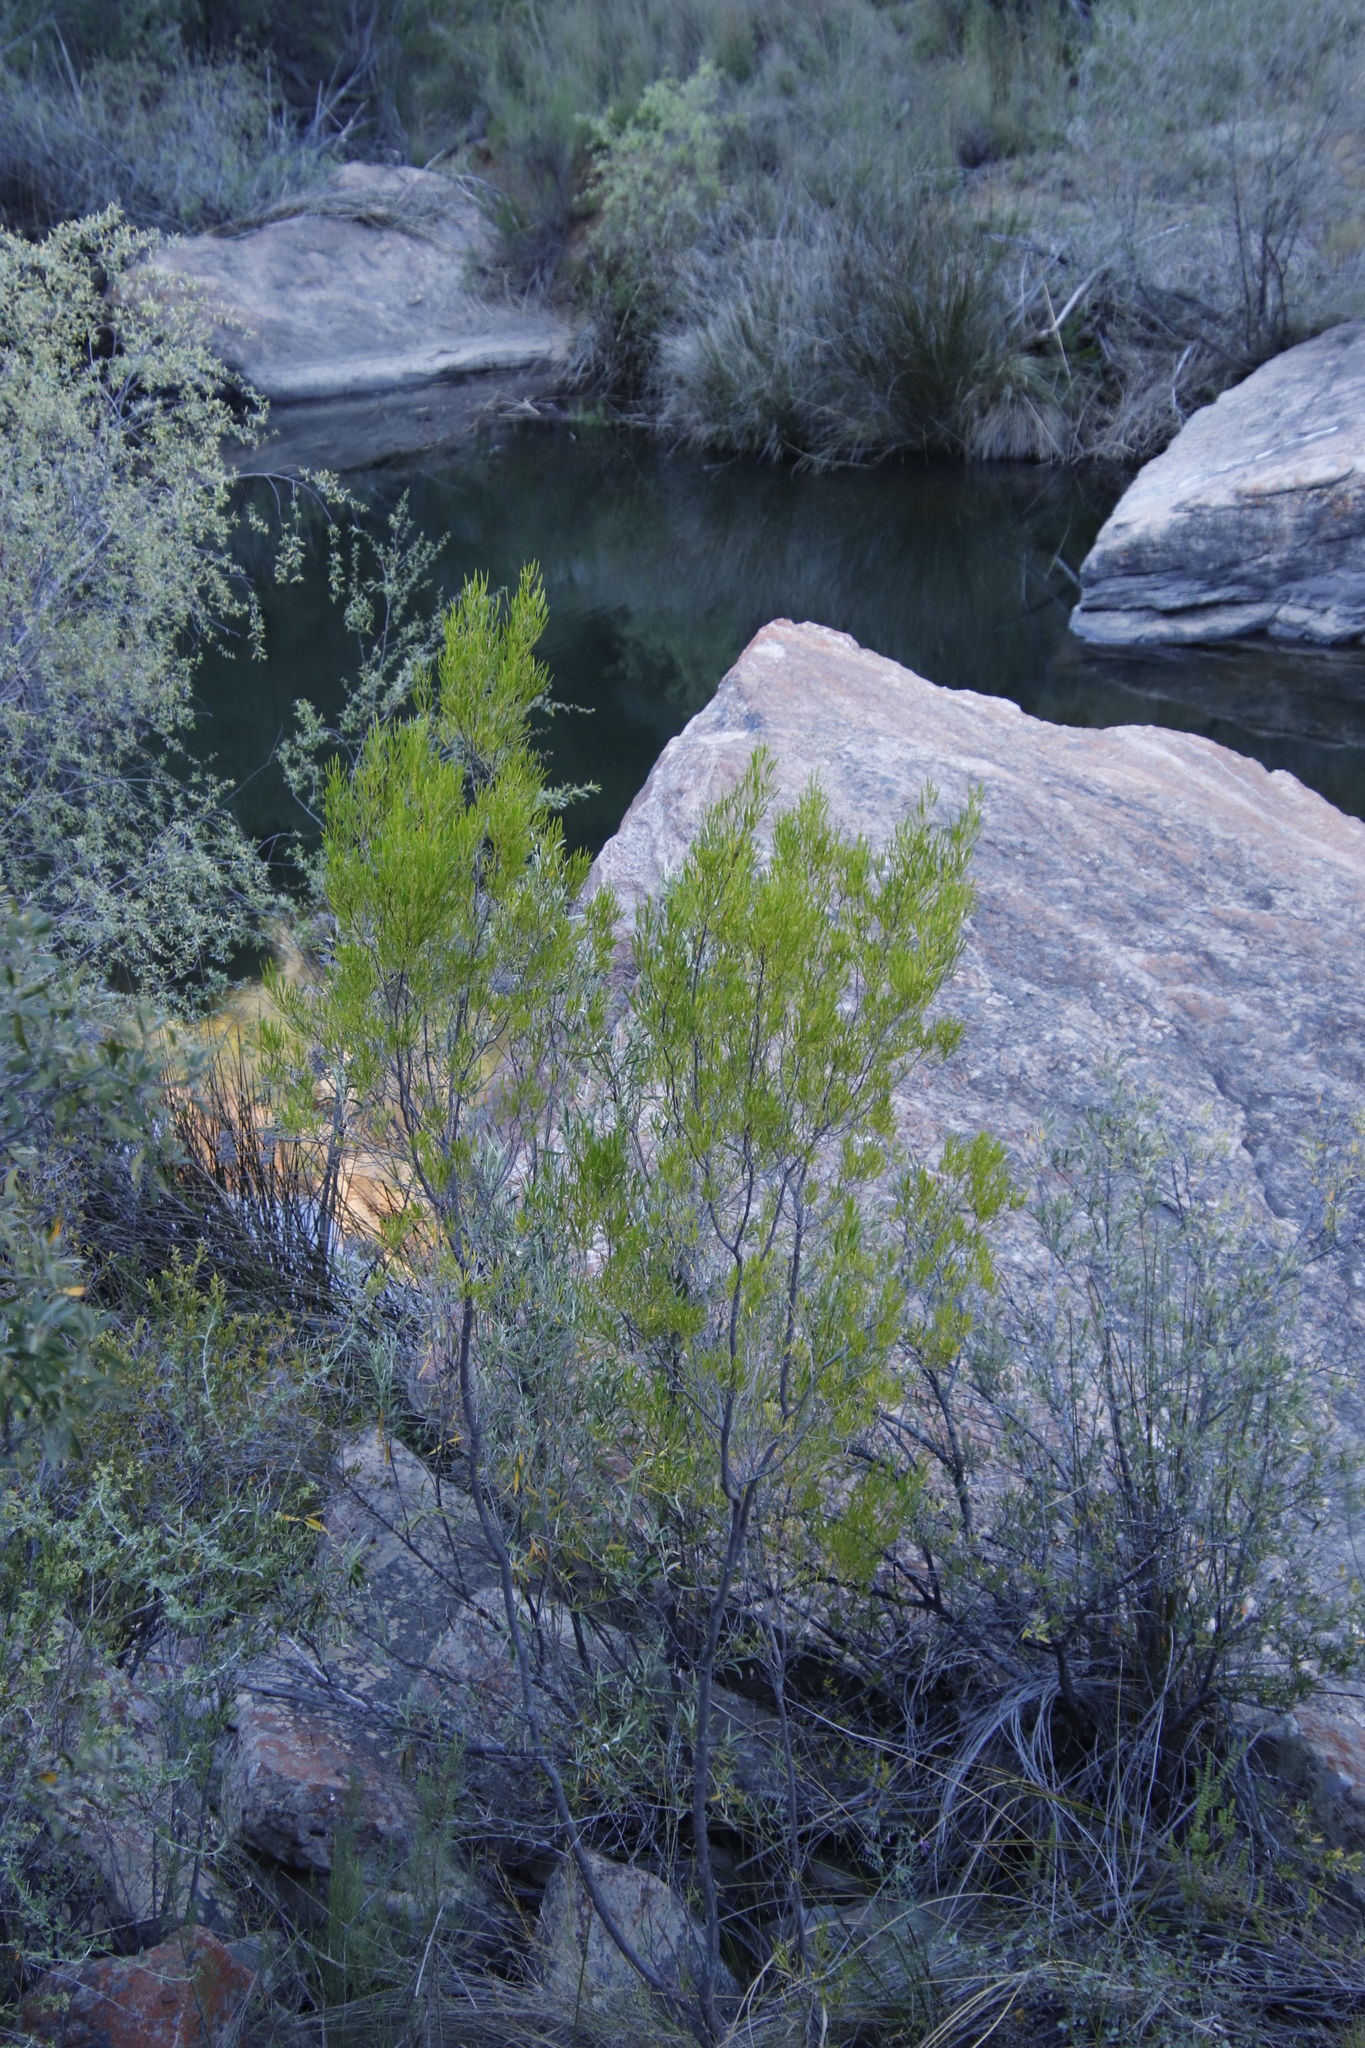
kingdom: Plantae
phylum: Tracheophyta
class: Magnoliopsida
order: Sapindales
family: Sapindaceae
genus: Dodonaea
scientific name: Dodonaea viscosa
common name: Hopbush
